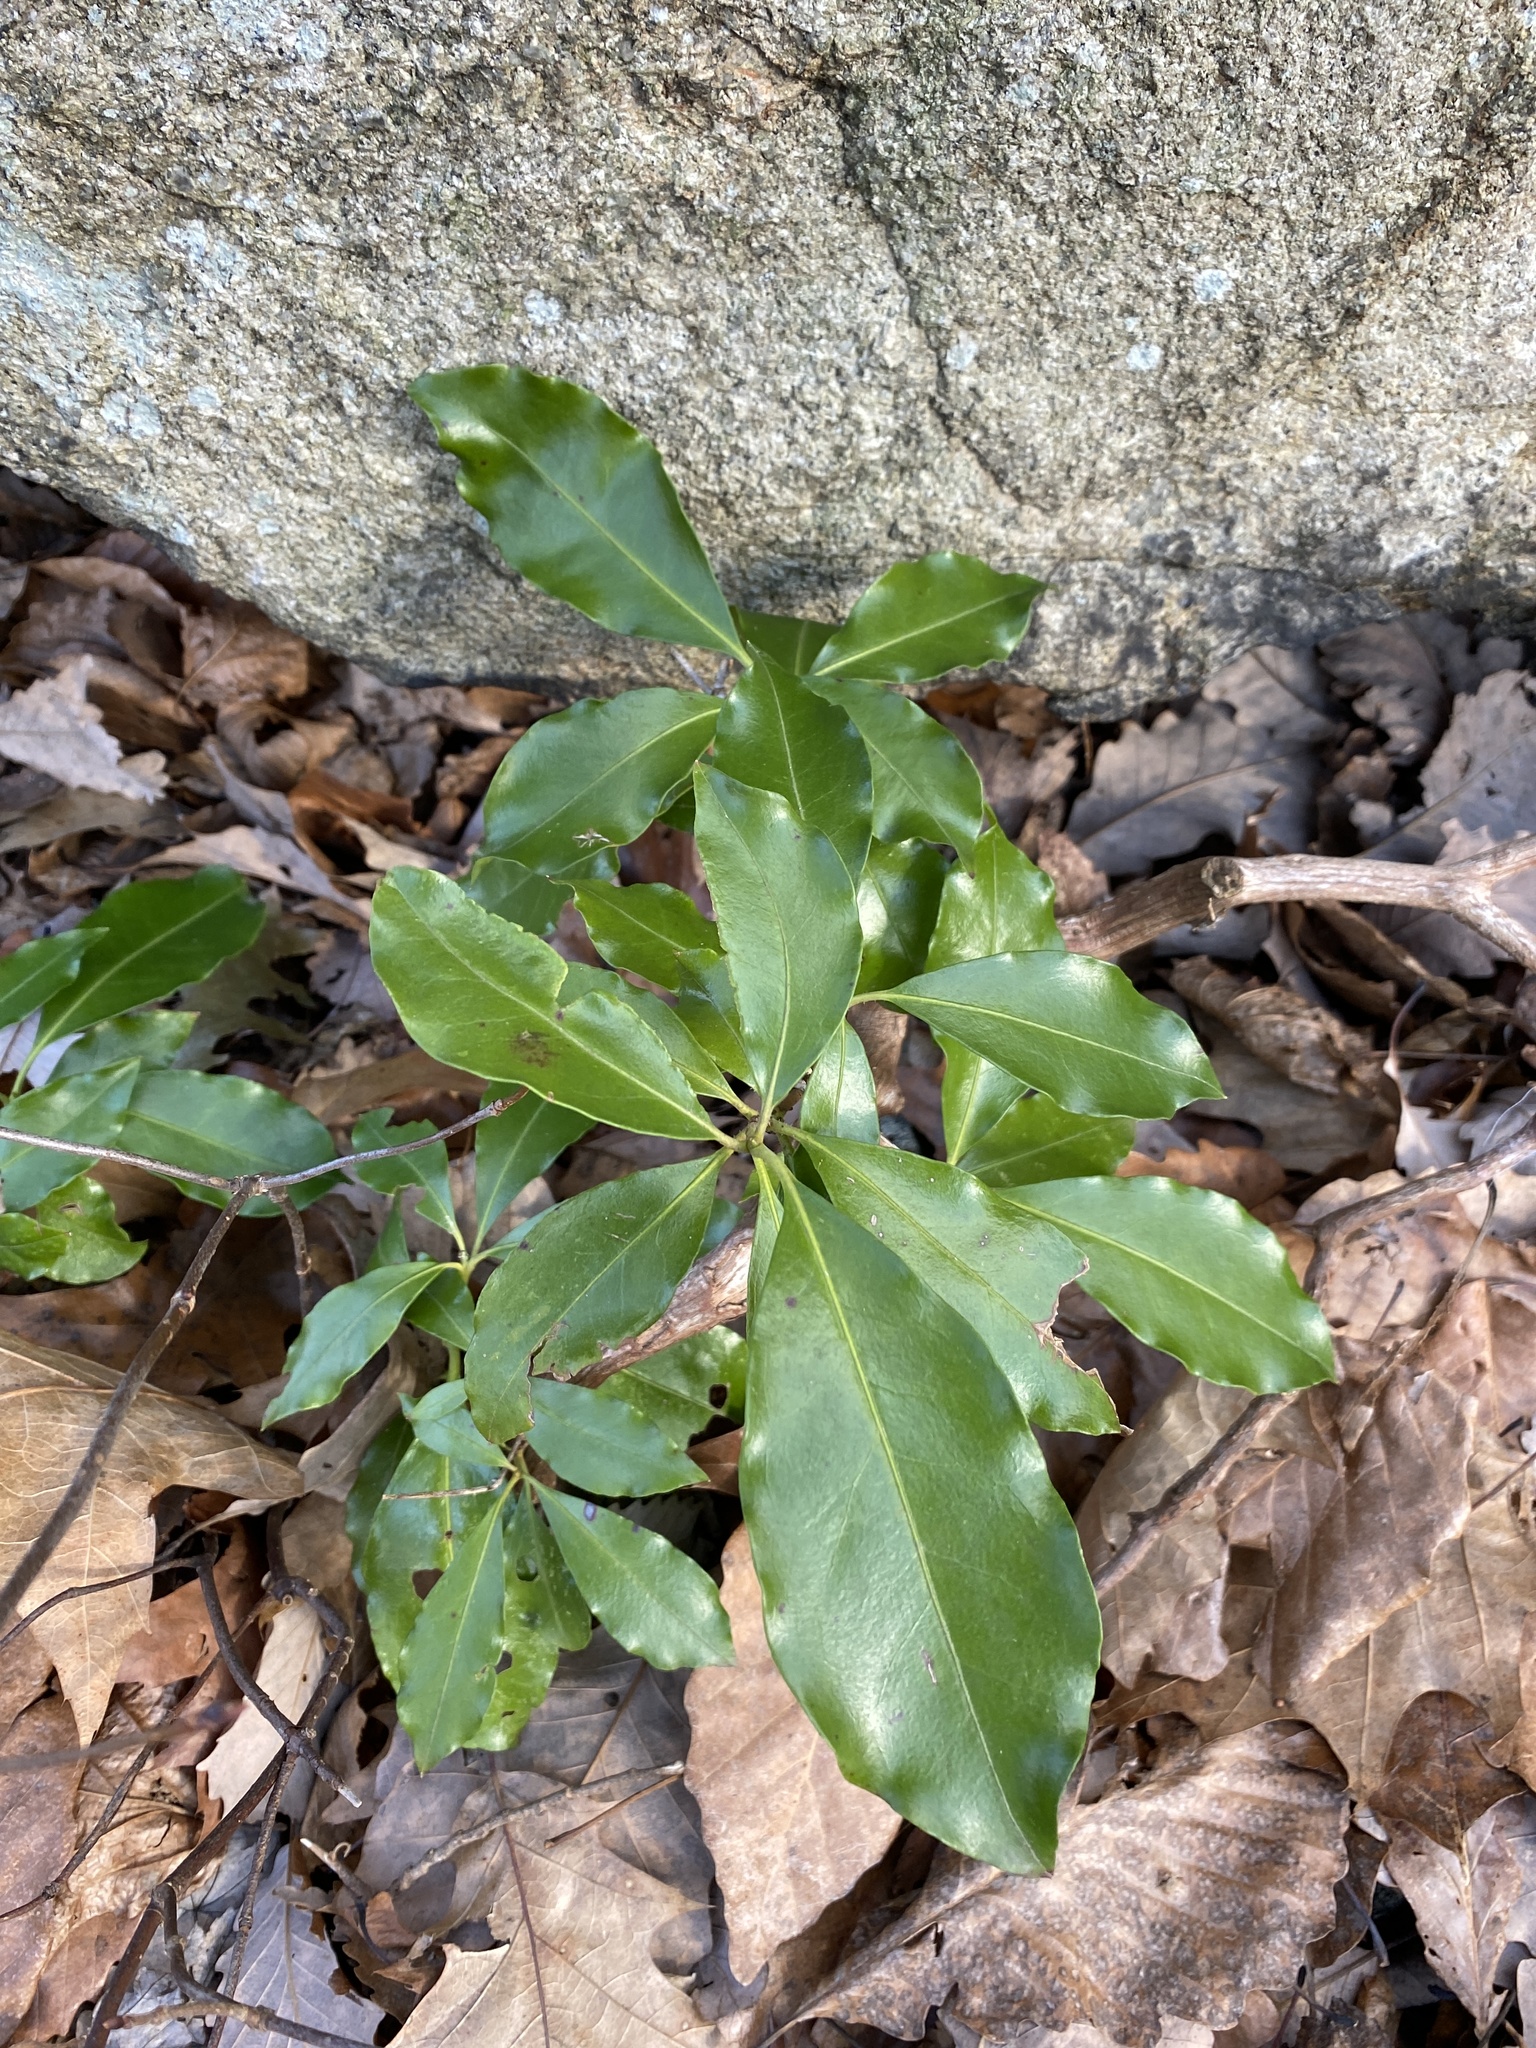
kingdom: Plantae
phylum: Tracheophyta
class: Magnoliopsida
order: Ericales
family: Ericaceae
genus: Kalmia
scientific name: Kalmia latifolia
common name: Mountain-laurel
